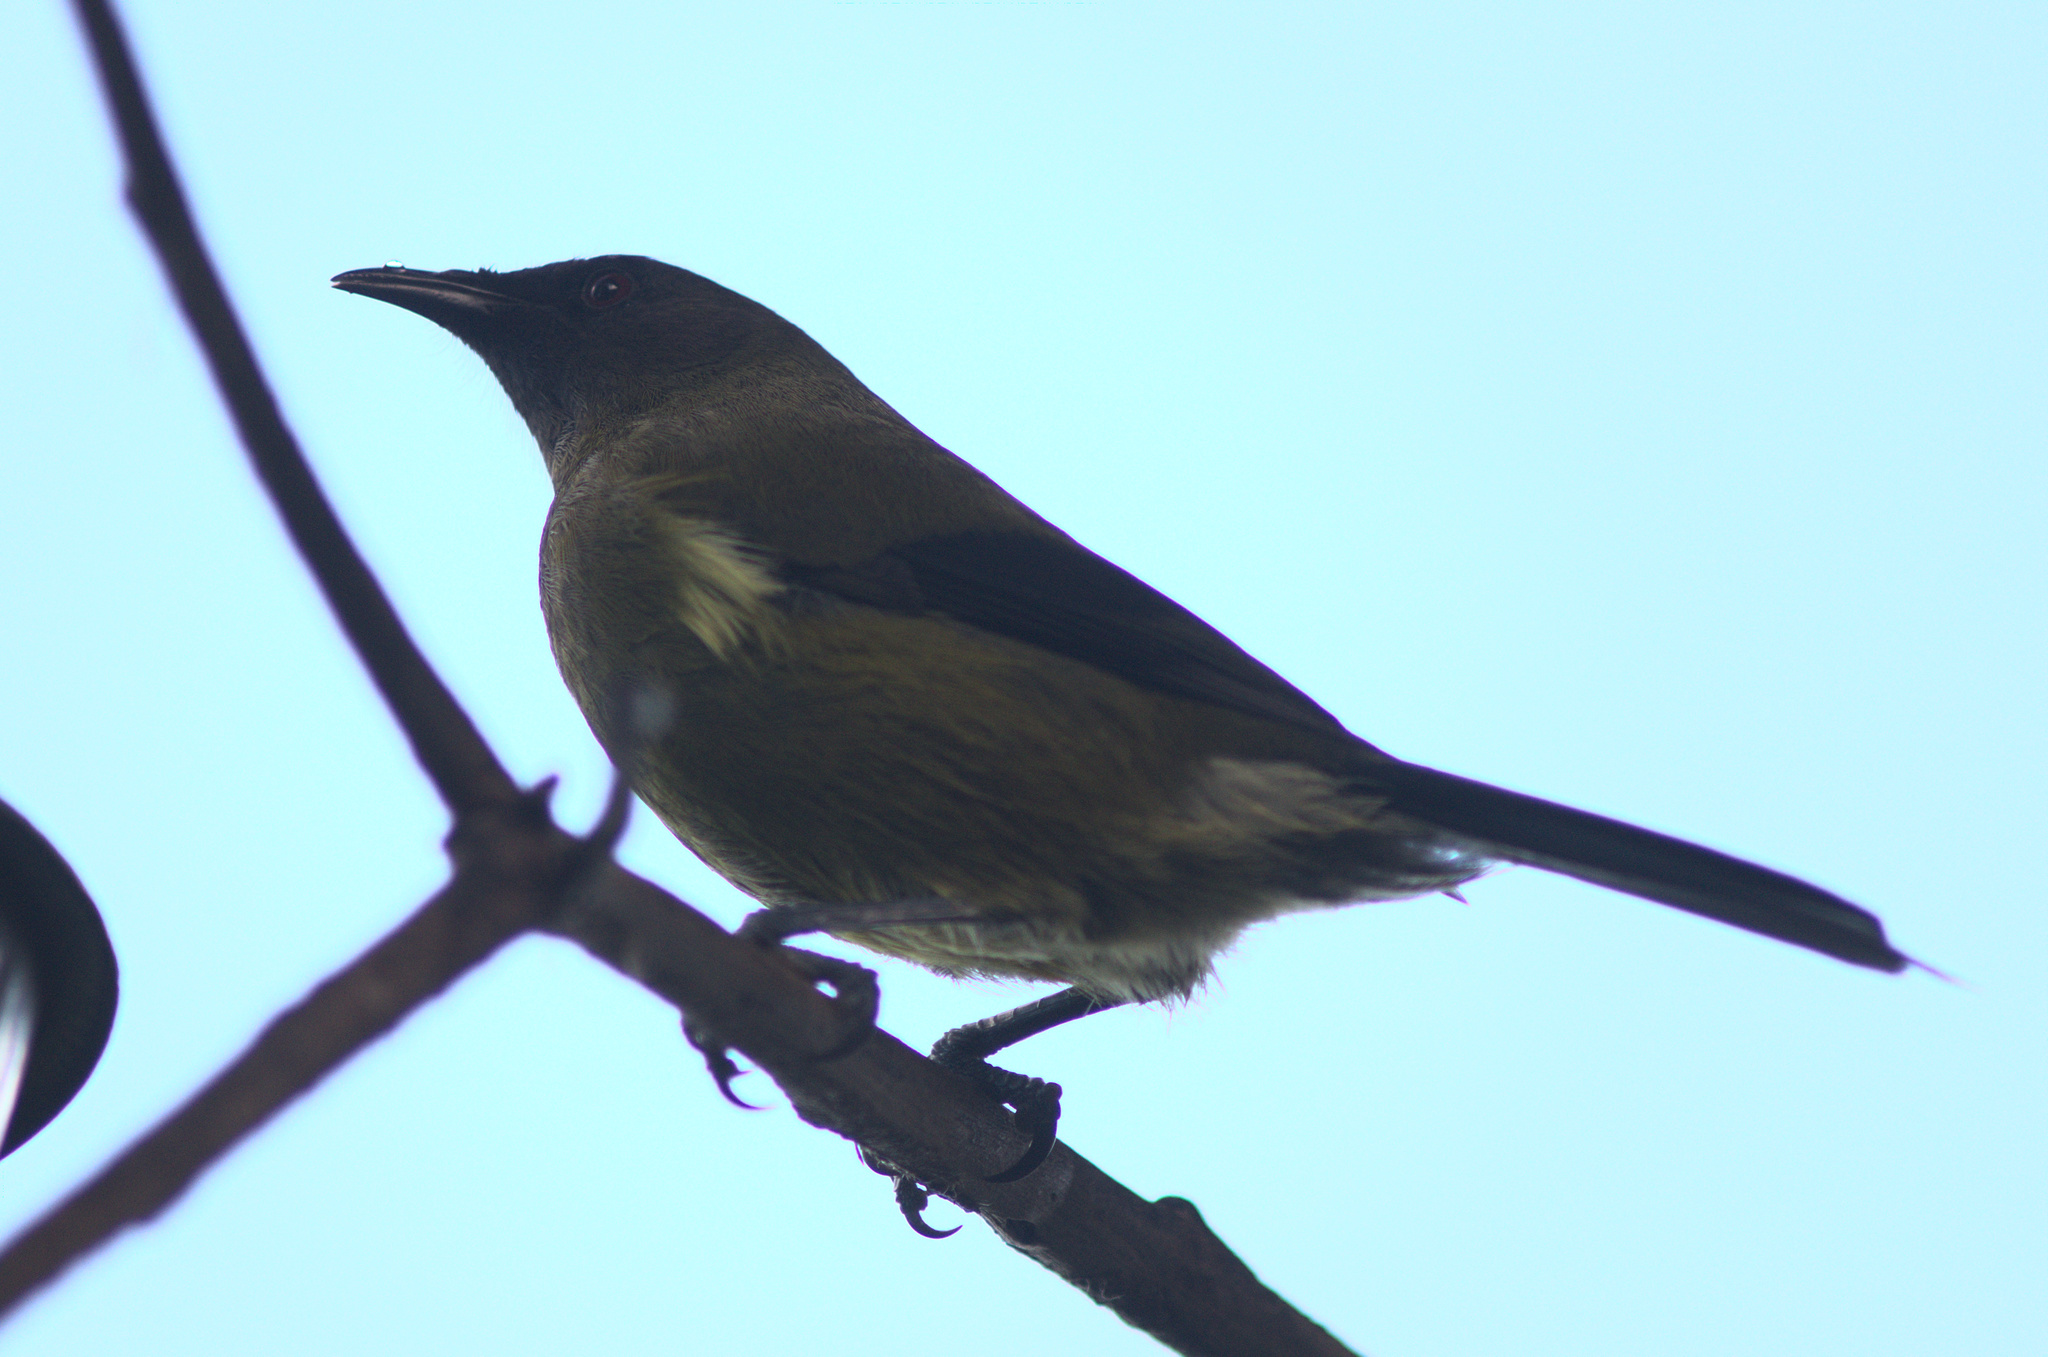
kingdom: Animalia
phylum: Chordata
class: Aves
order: Passeriformes
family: Meliphagidae
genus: Anthornis
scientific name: Anthornis melanura
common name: New zealand bellbird
